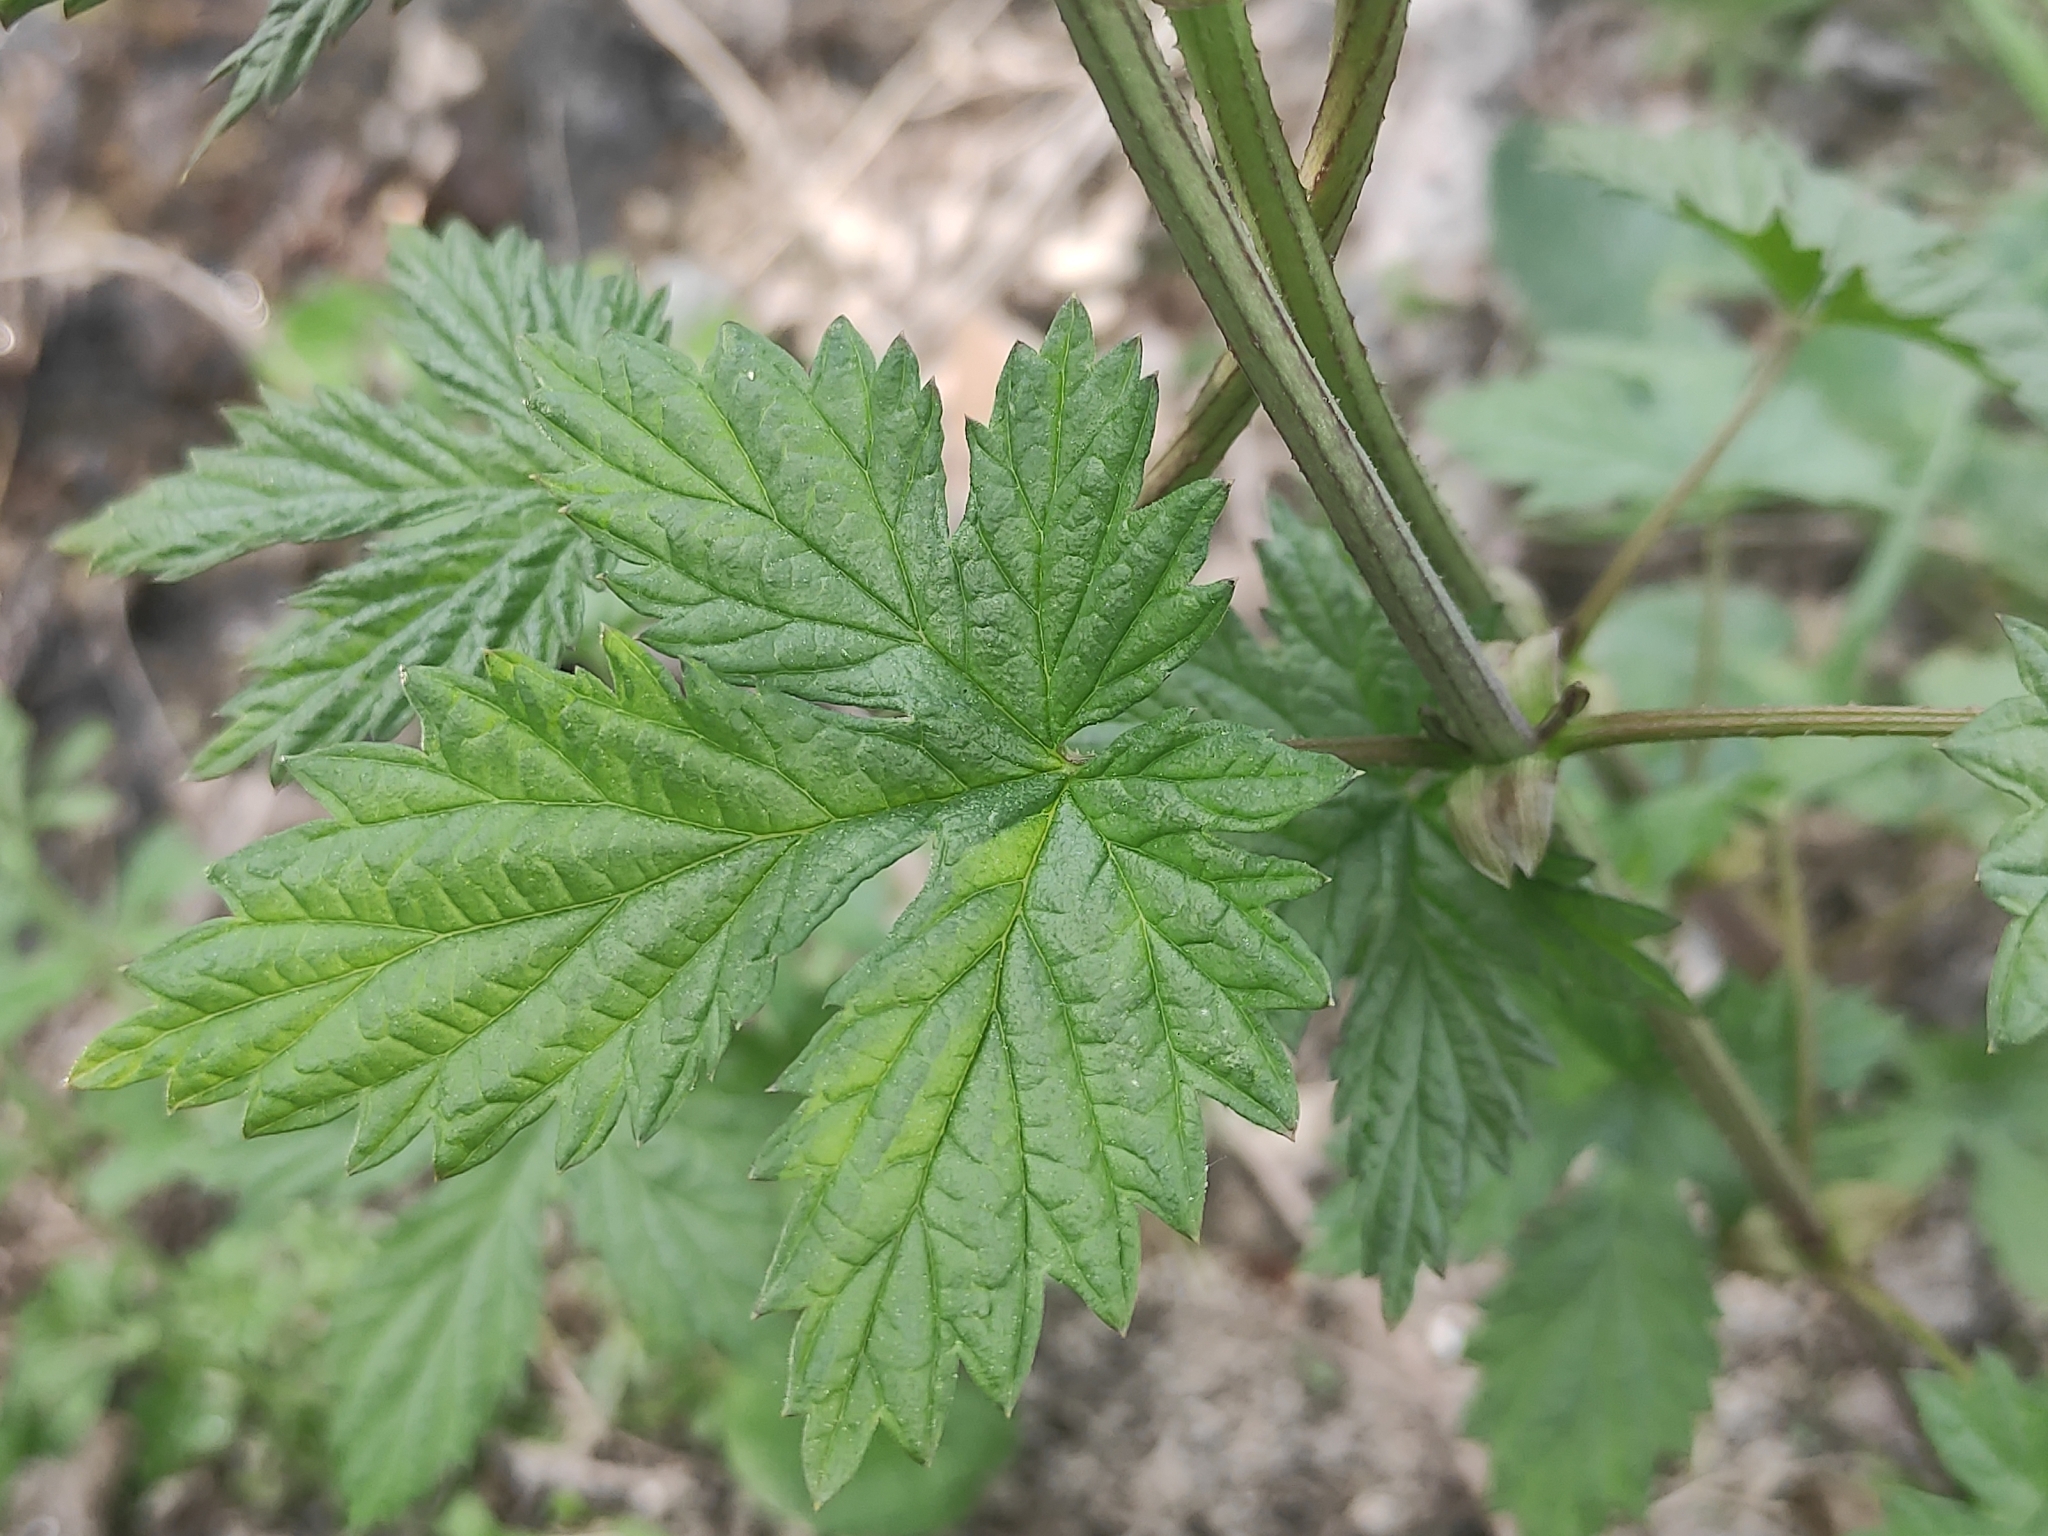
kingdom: Plantae
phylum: Tracheophyta
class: Magnoliopsida
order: Rosales
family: Cannabaceae
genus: Humulus
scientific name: Humulus lupulus
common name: Hop
